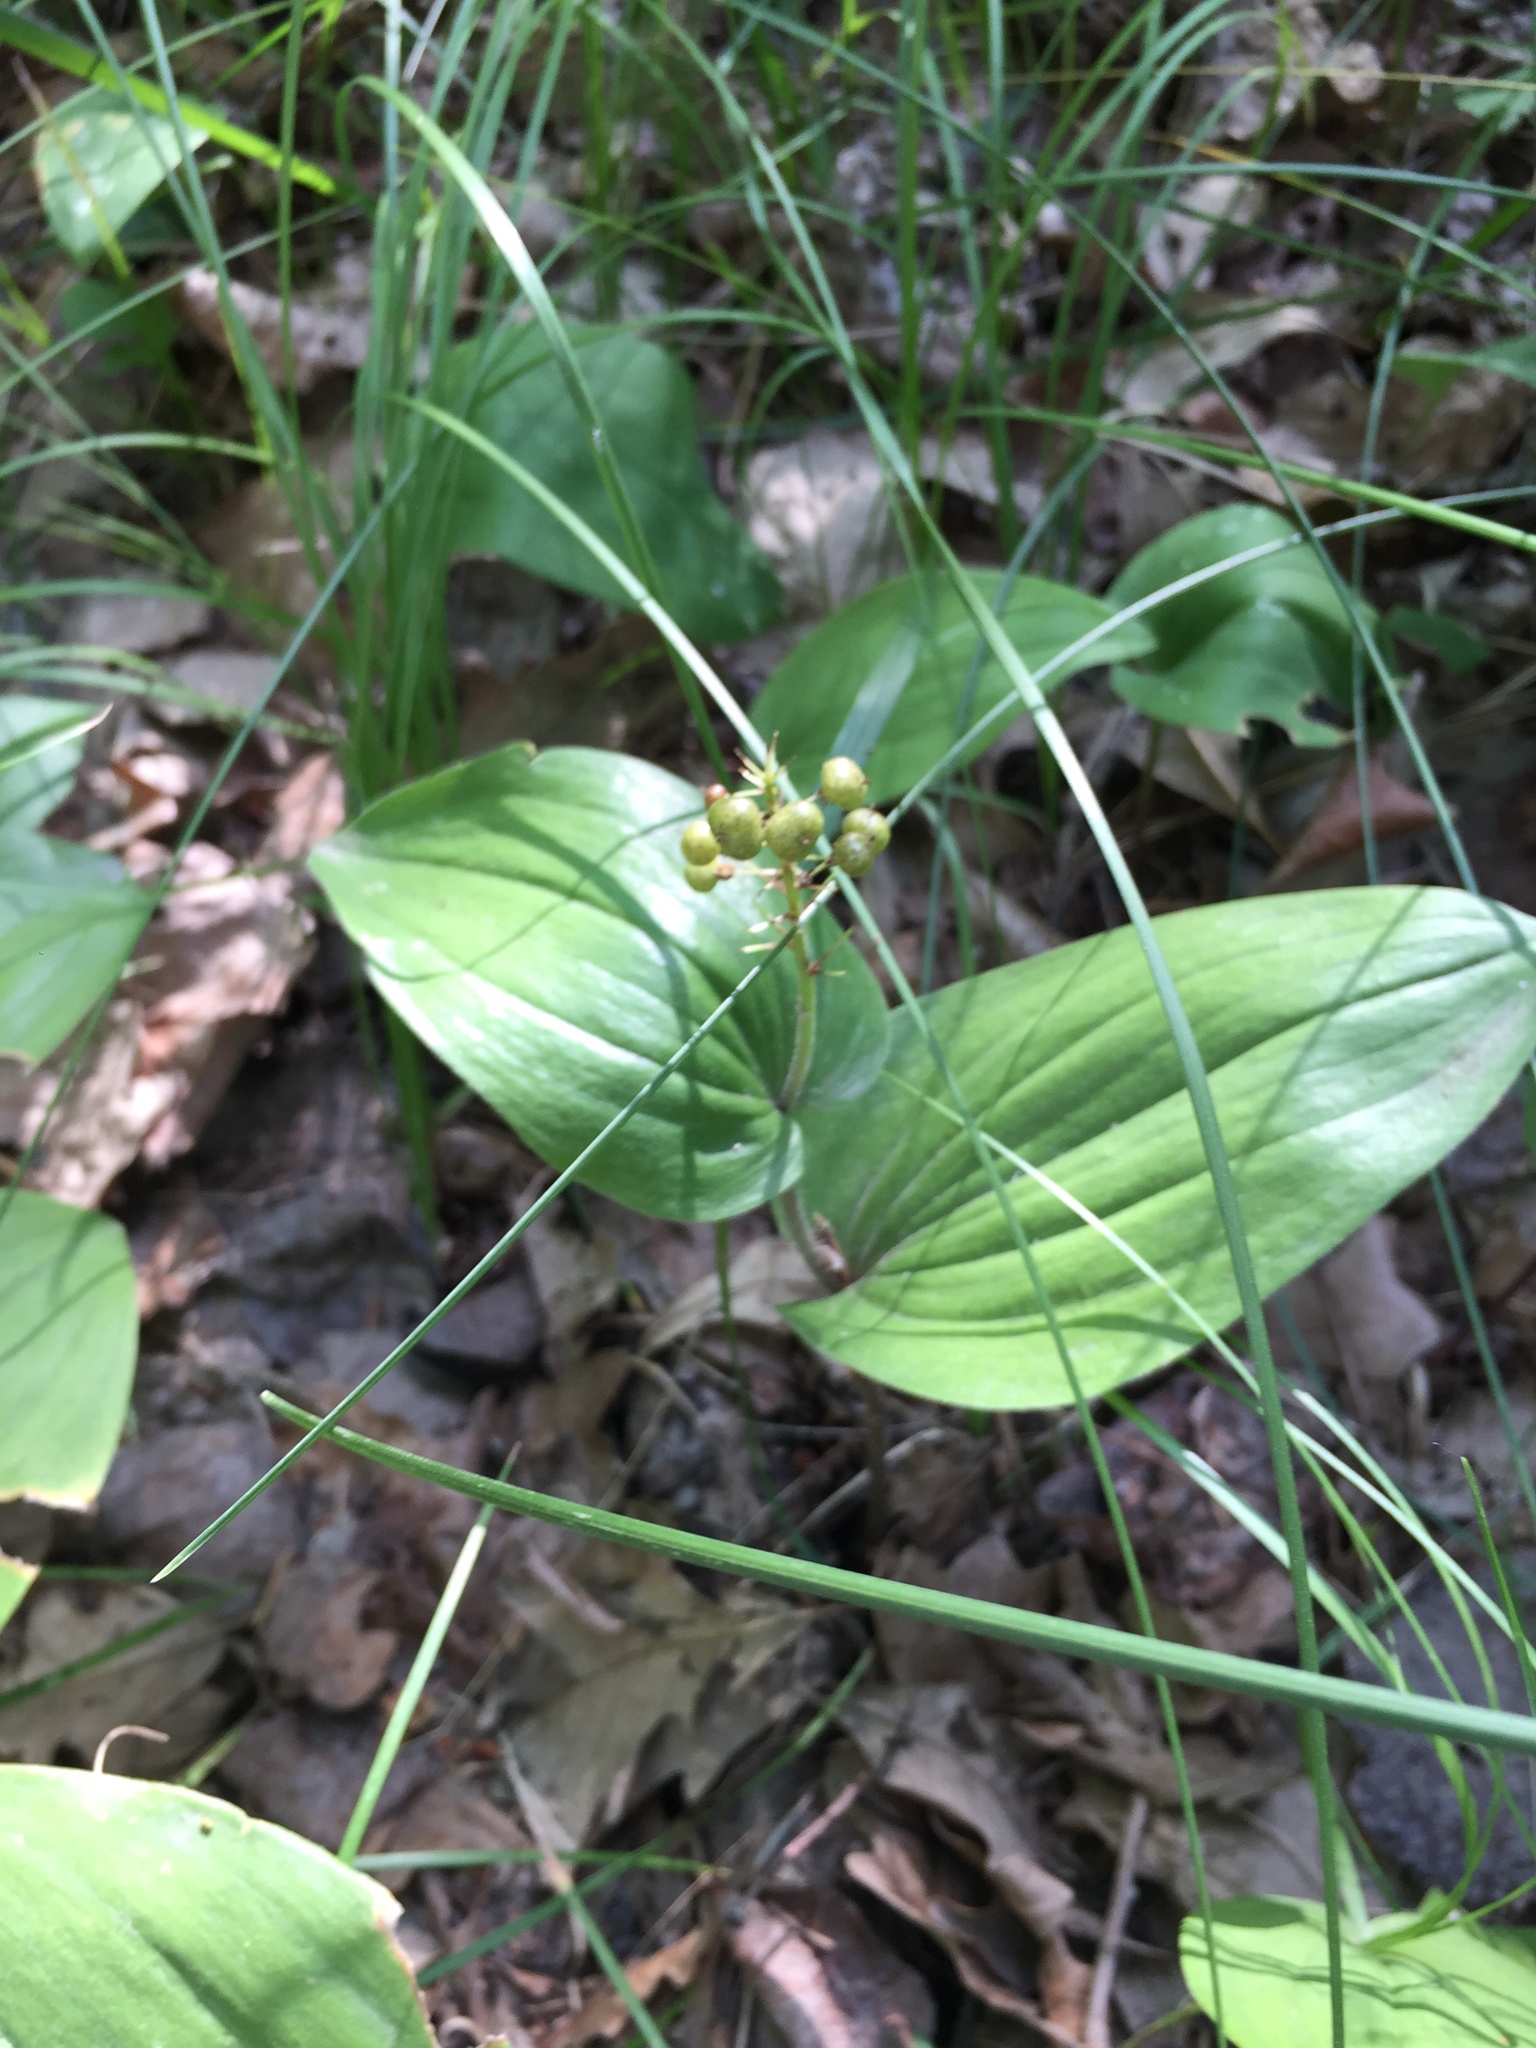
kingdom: Plantae
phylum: Tracheophyta
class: Liliopsida
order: Asparagales
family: Asparagaceae
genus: Maianthemum
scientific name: Maianthemum canadense
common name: False lily-of-the-valley
